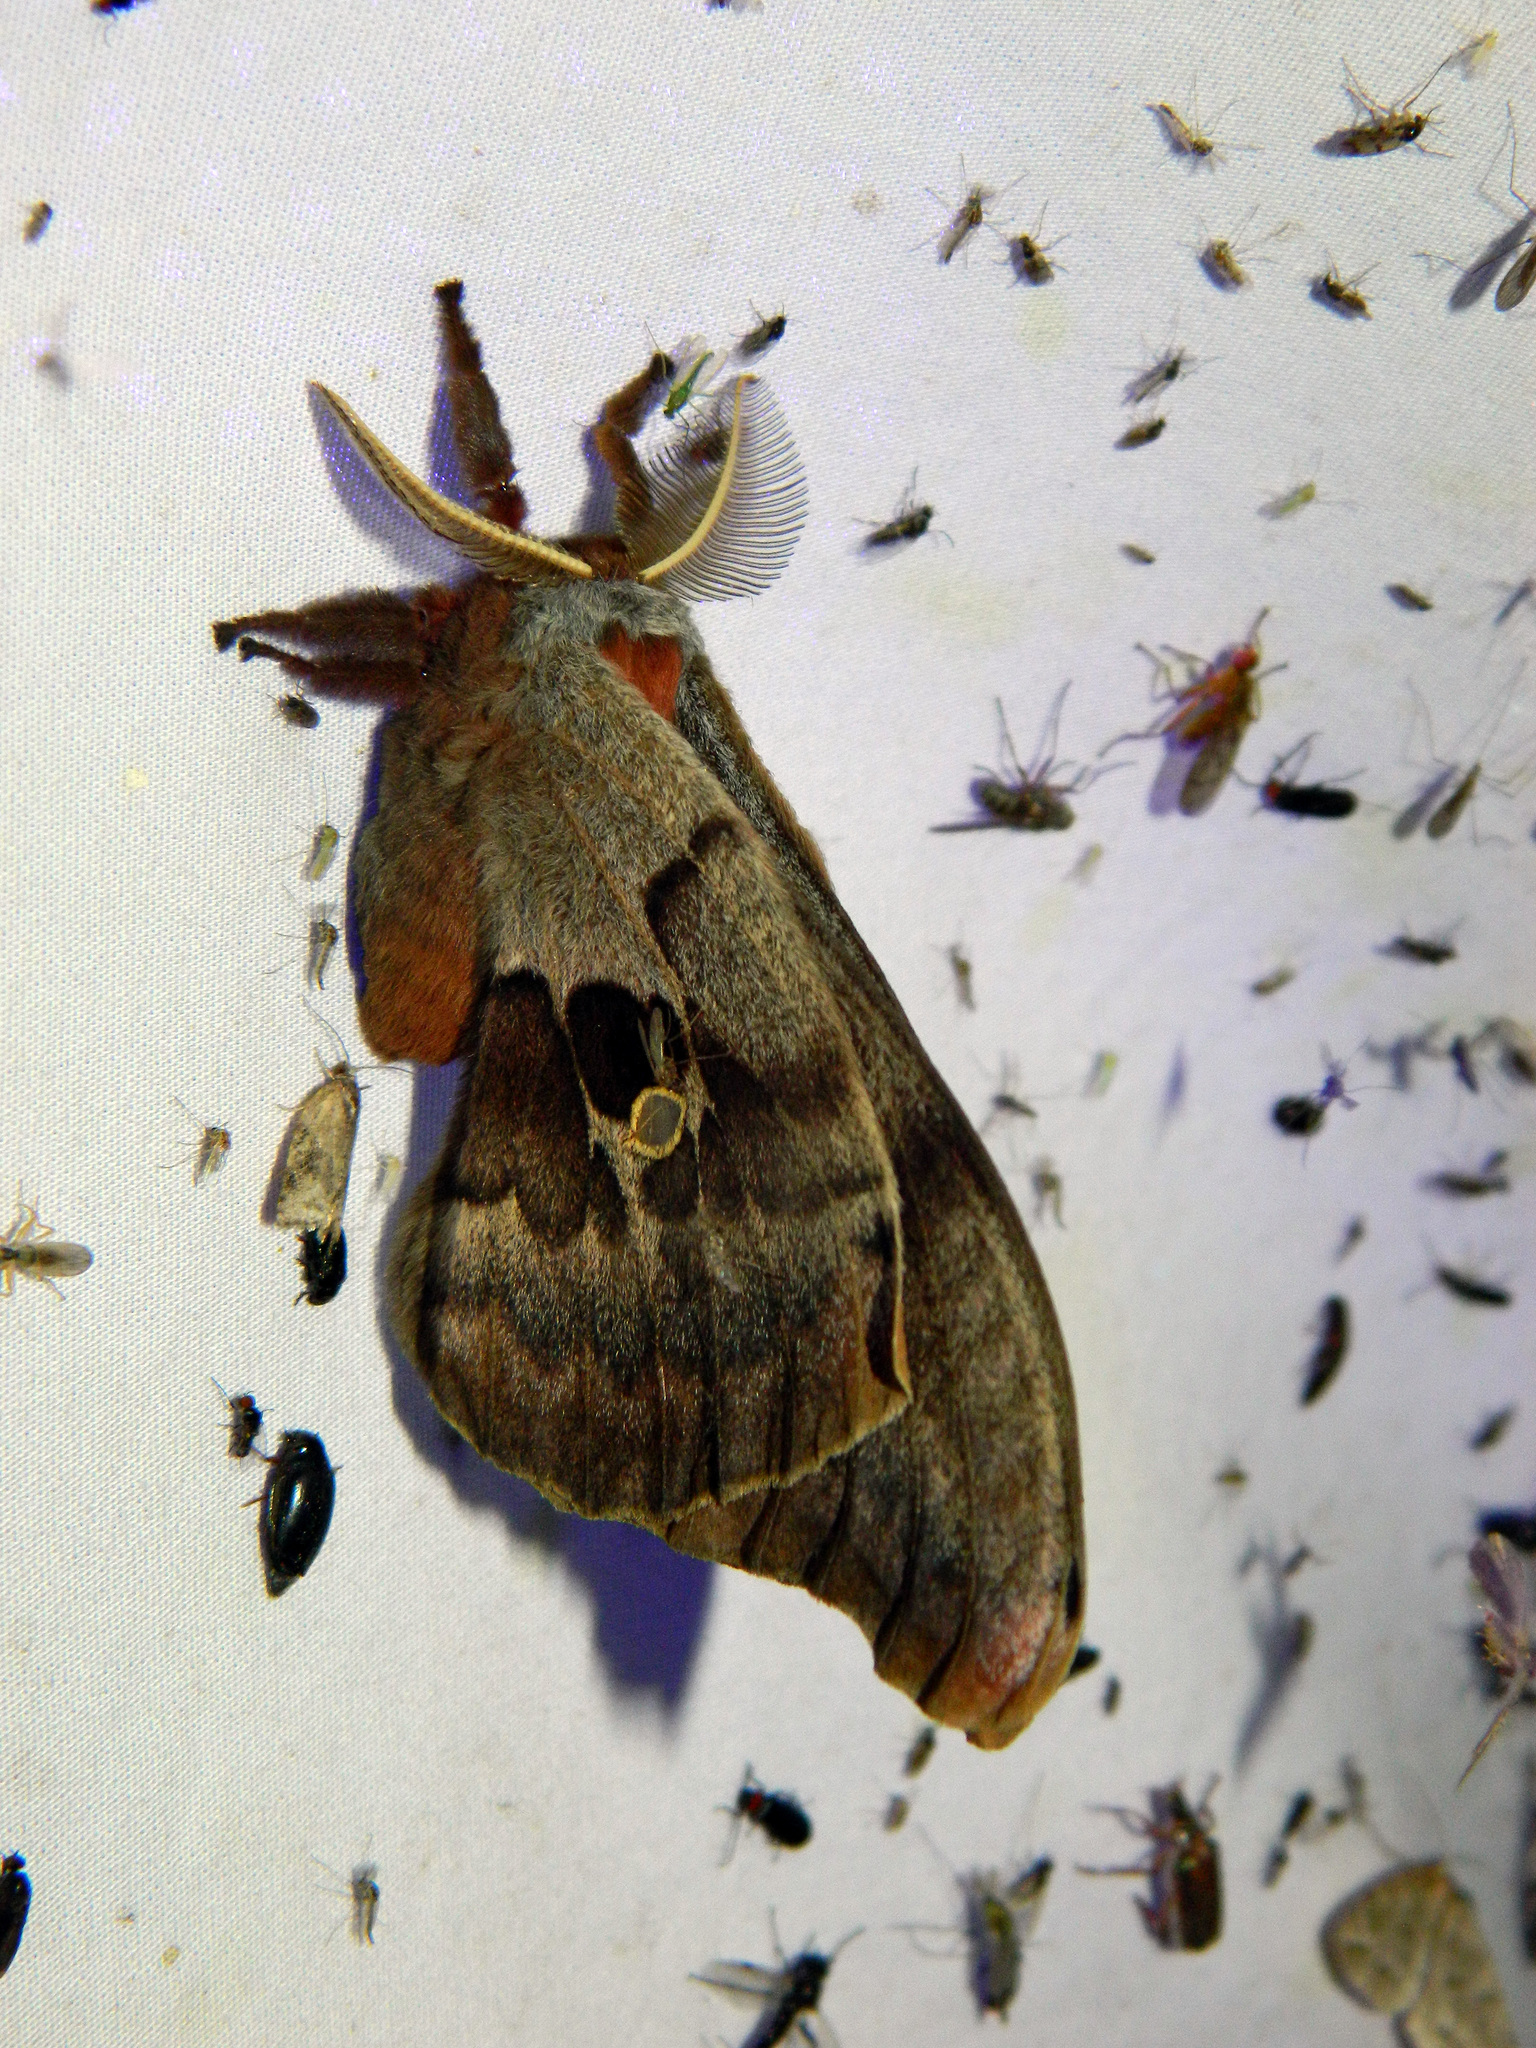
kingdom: Animalia
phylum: Arthropoda
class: Insecta
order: Lepidoptera
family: Saturniidae
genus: Antheraea
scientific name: Antheraea polyphemus
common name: Polyphemus moth
